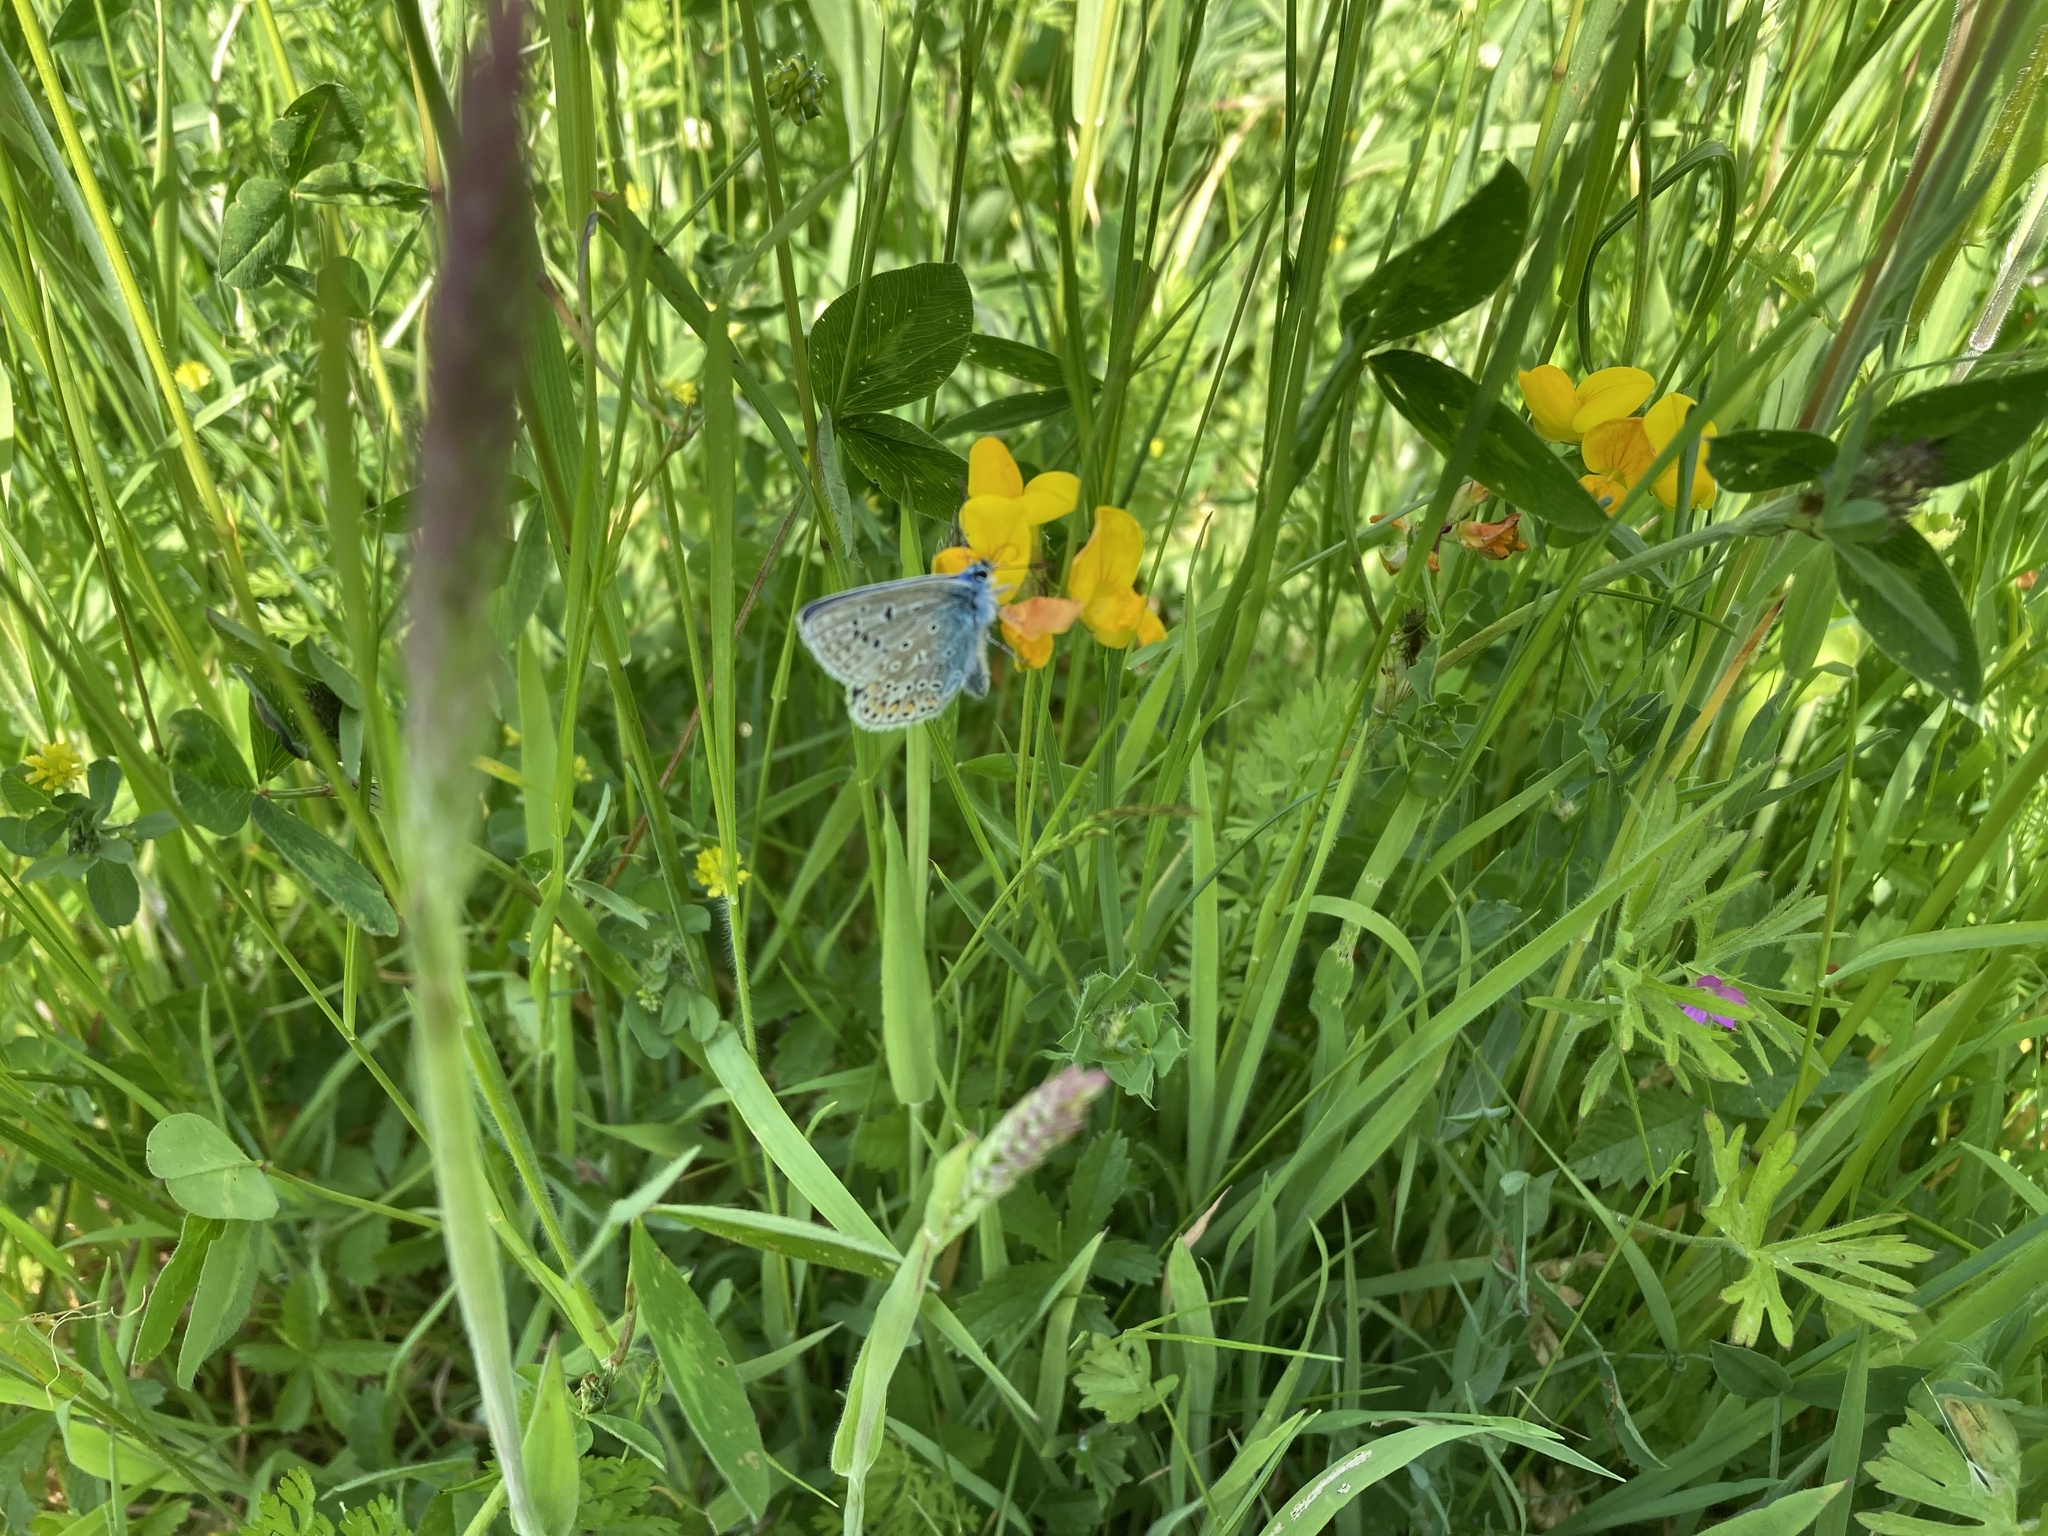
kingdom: Animalia
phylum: Arthropoda
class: Insecta
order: Lepidoptera
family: Lycaenidae
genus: Polyommatus
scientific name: Polyommatus icarus
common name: Common blue
